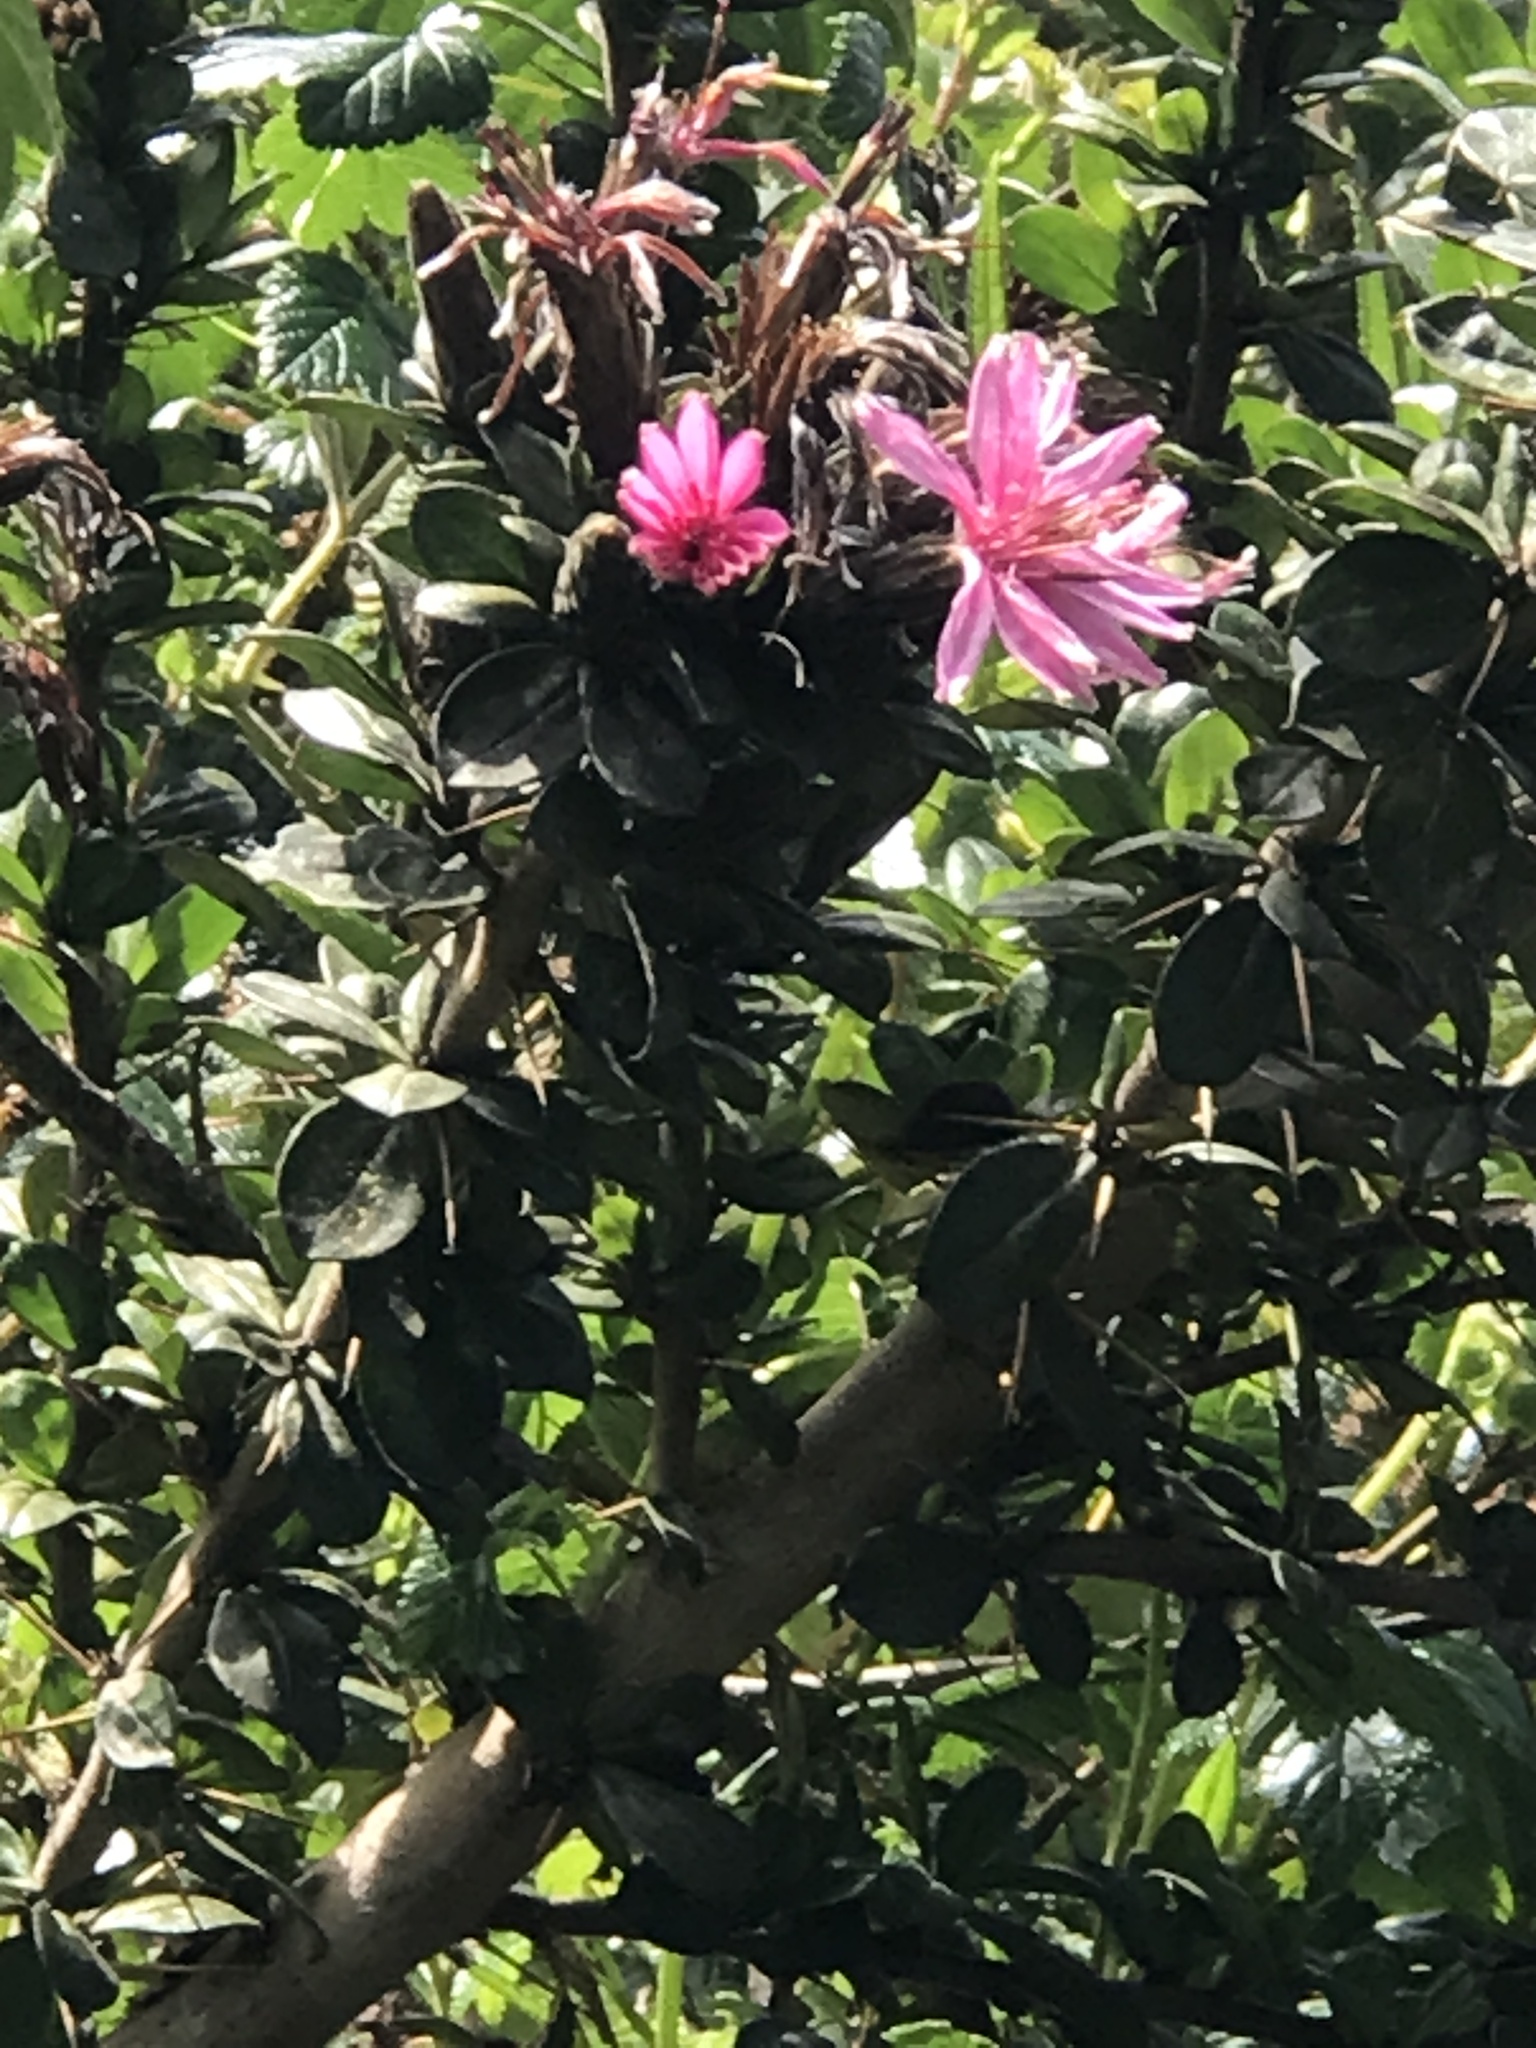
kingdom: Plantae
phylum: Tracheophyta
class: Magnoliopsida
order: Asterales
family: Asteraceae
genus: Barnadesia
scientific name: Barnadesia arborea
